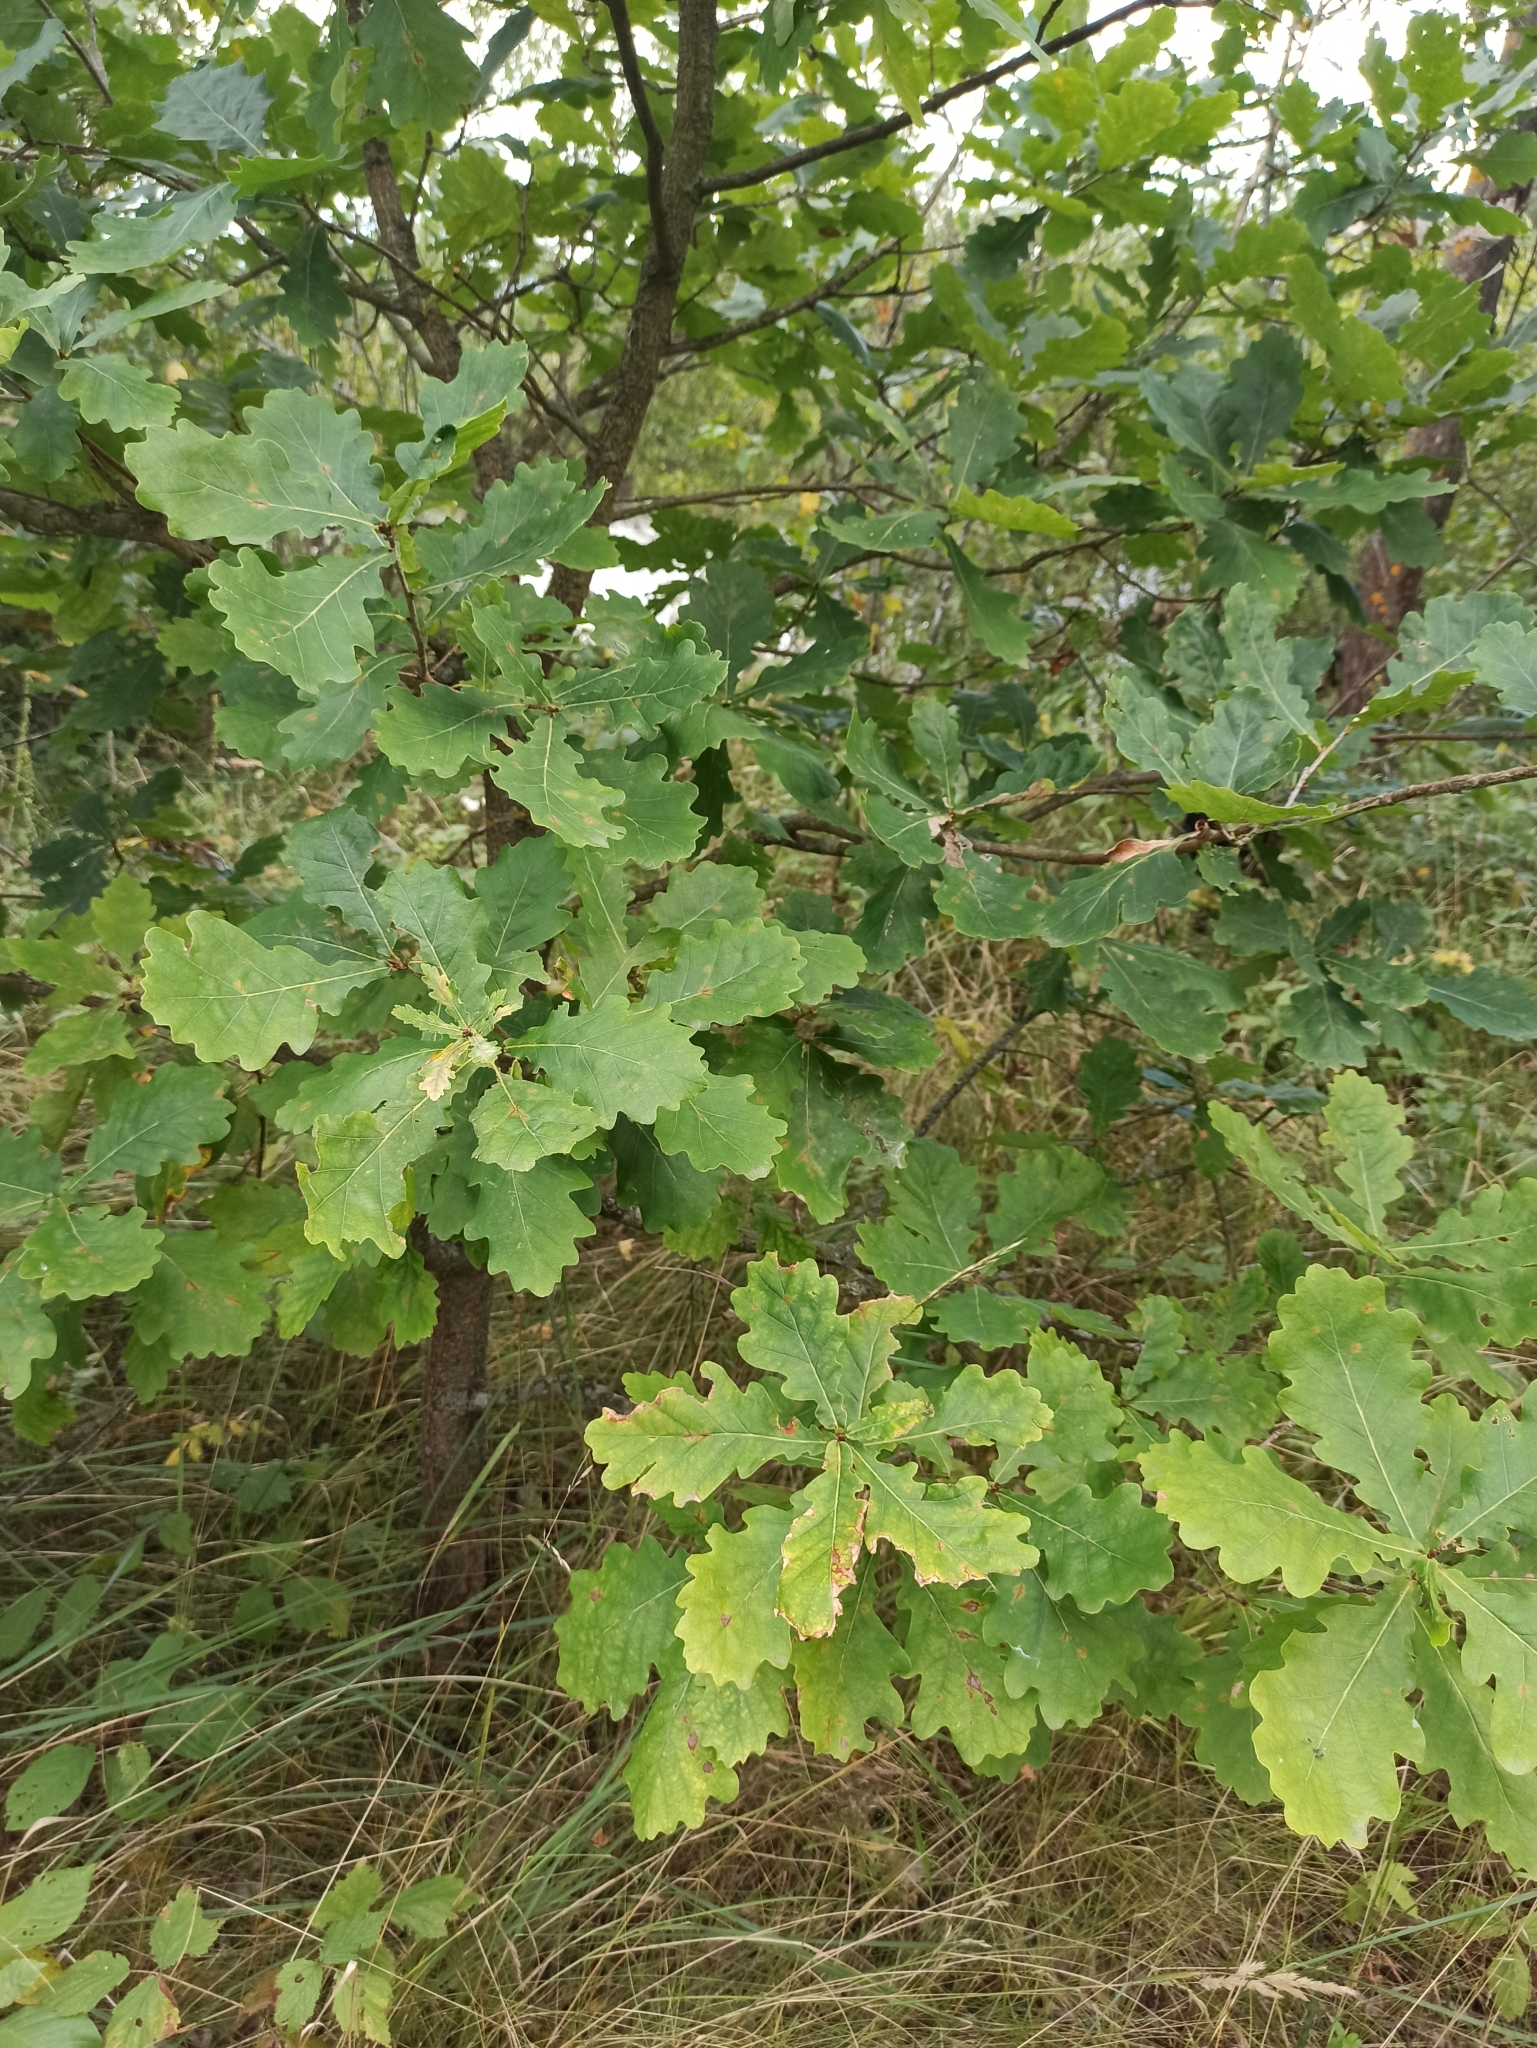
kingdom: Plantae
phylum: Tracheophyta
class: Magnoliopsida
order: Fagales
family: Fagaceae
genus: Quercus
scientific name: Quercus robur
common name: Pedunculate oak
